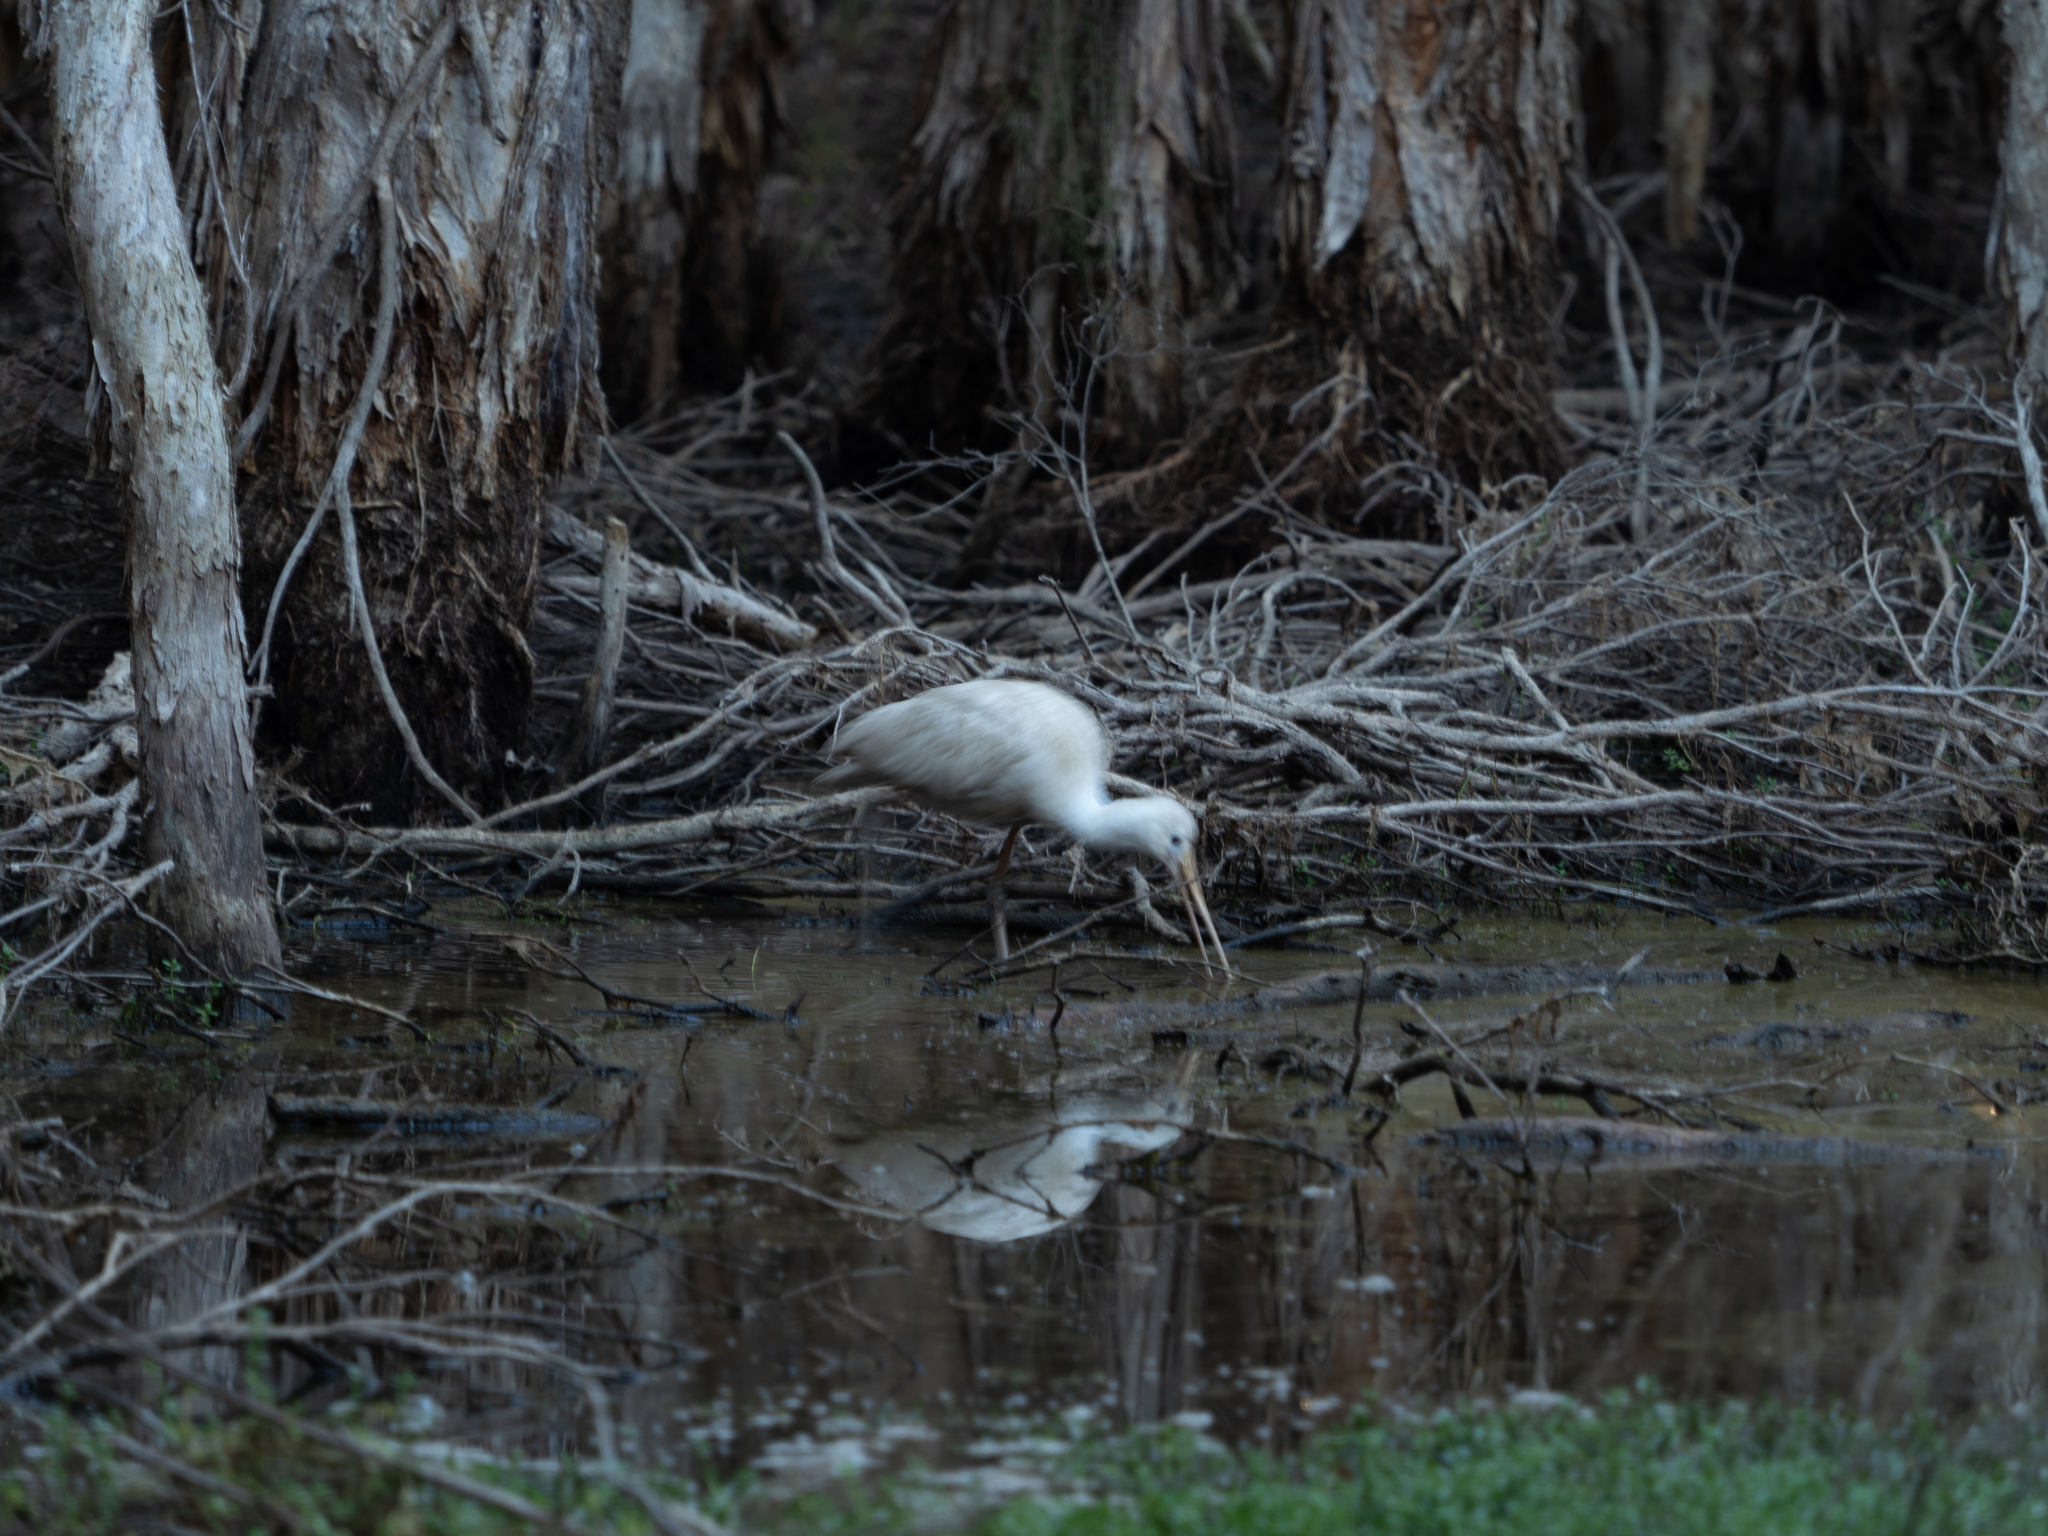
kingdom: Animalia
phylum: Chordata
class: Aves
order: Pelecaniformes
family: Threskiornithidae
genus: Platalea
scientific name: Platalea flavipes
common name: Yellow-billed spoonbill
